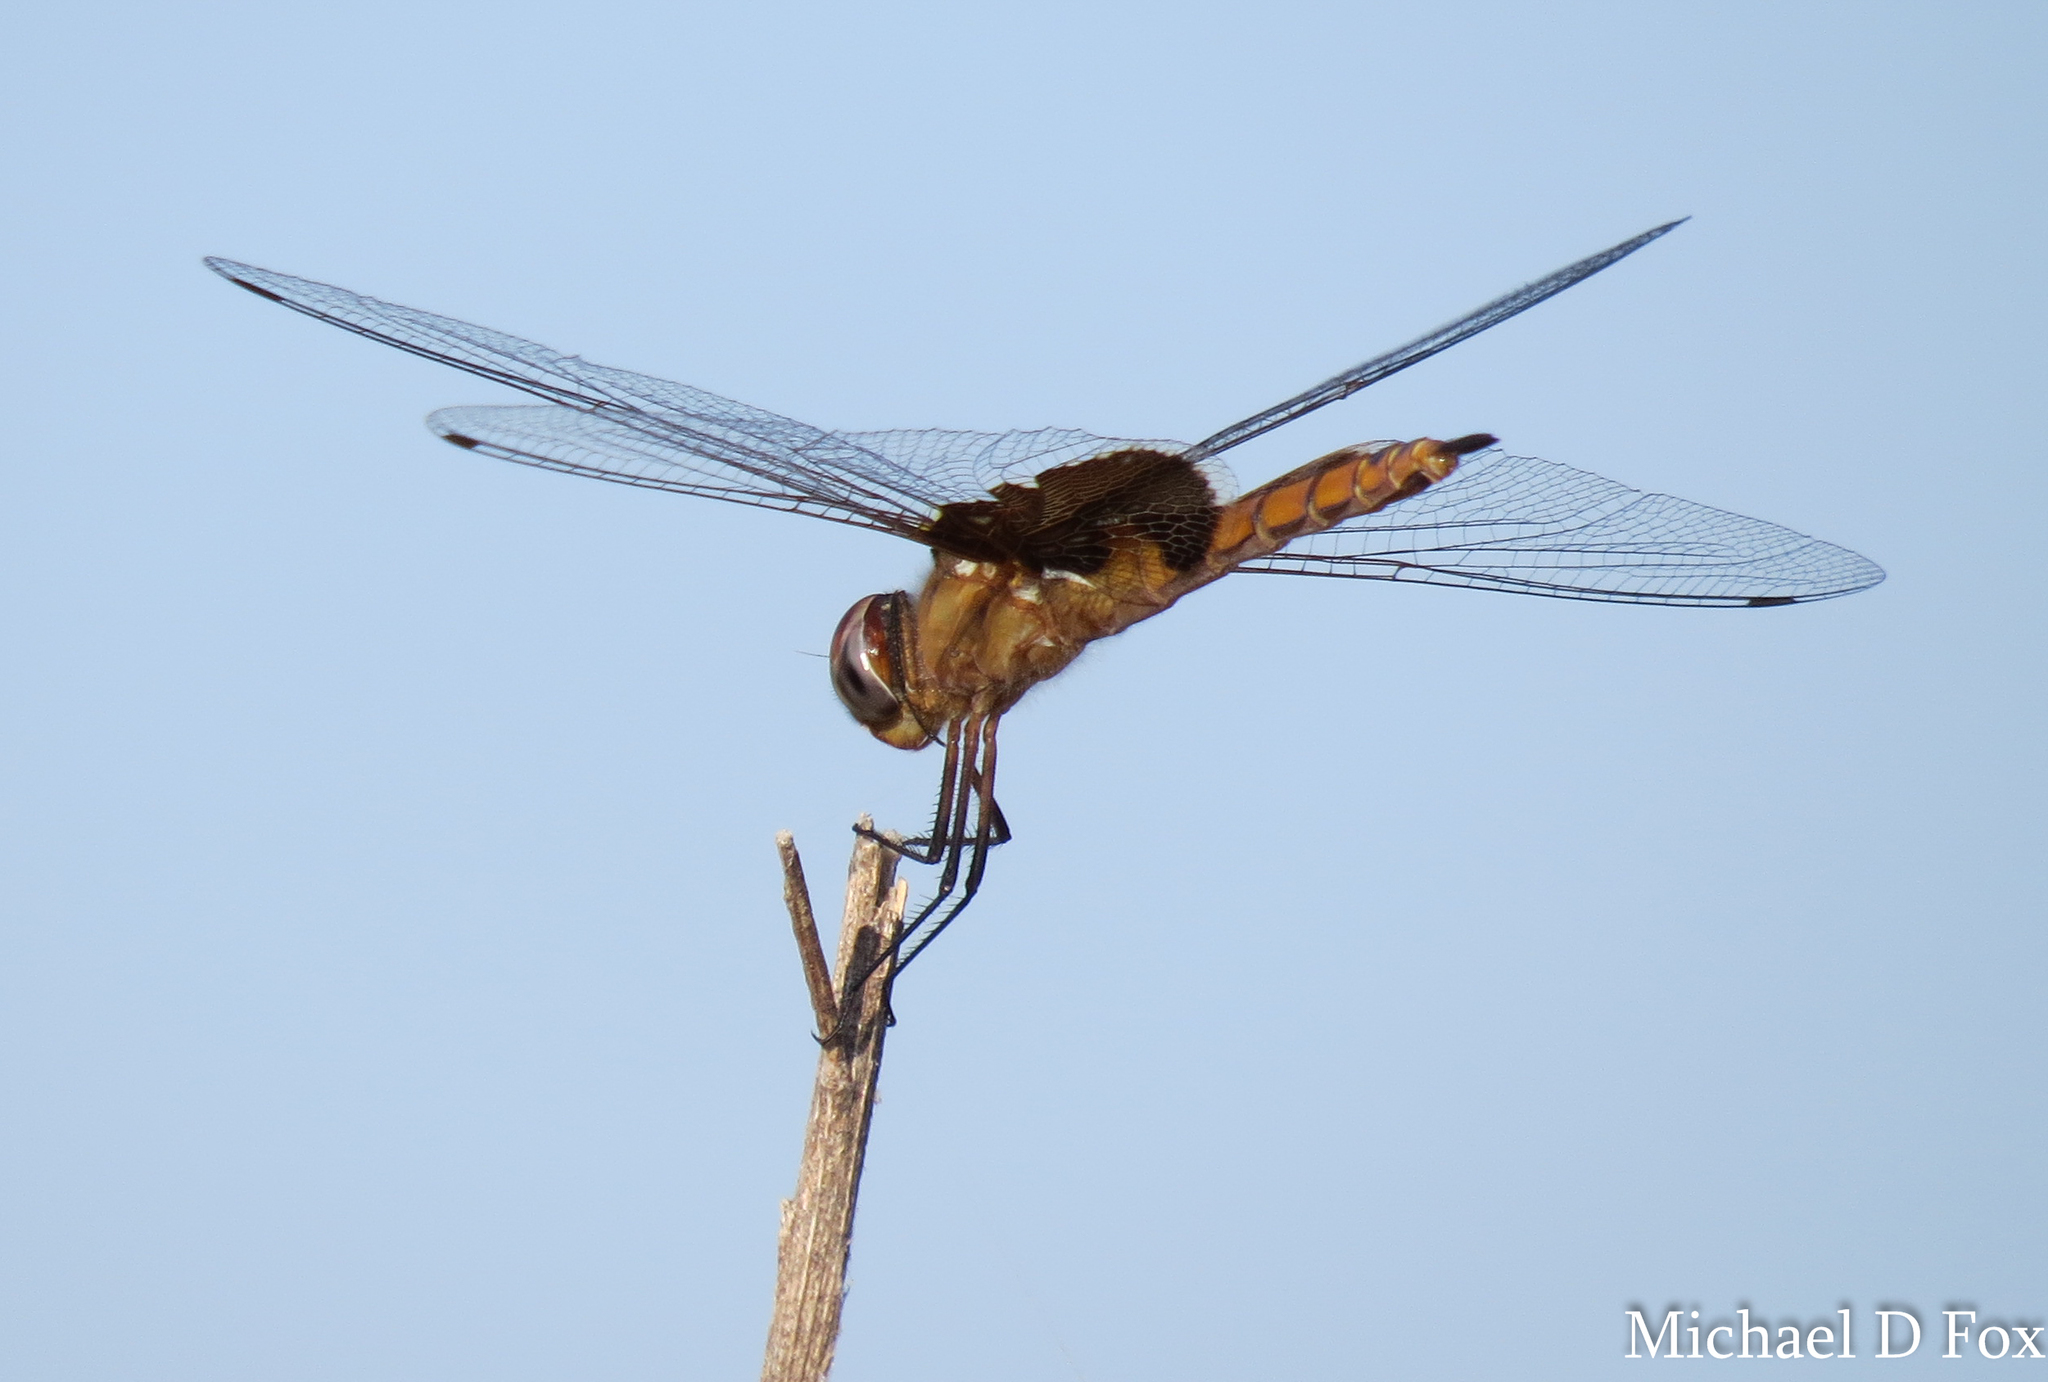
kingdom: Animalia
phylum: Arthropoda
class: Insecta
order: Odonata
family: Libellulidae
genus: Tramea
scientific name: Tramea onusta
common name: Red saddlebags
